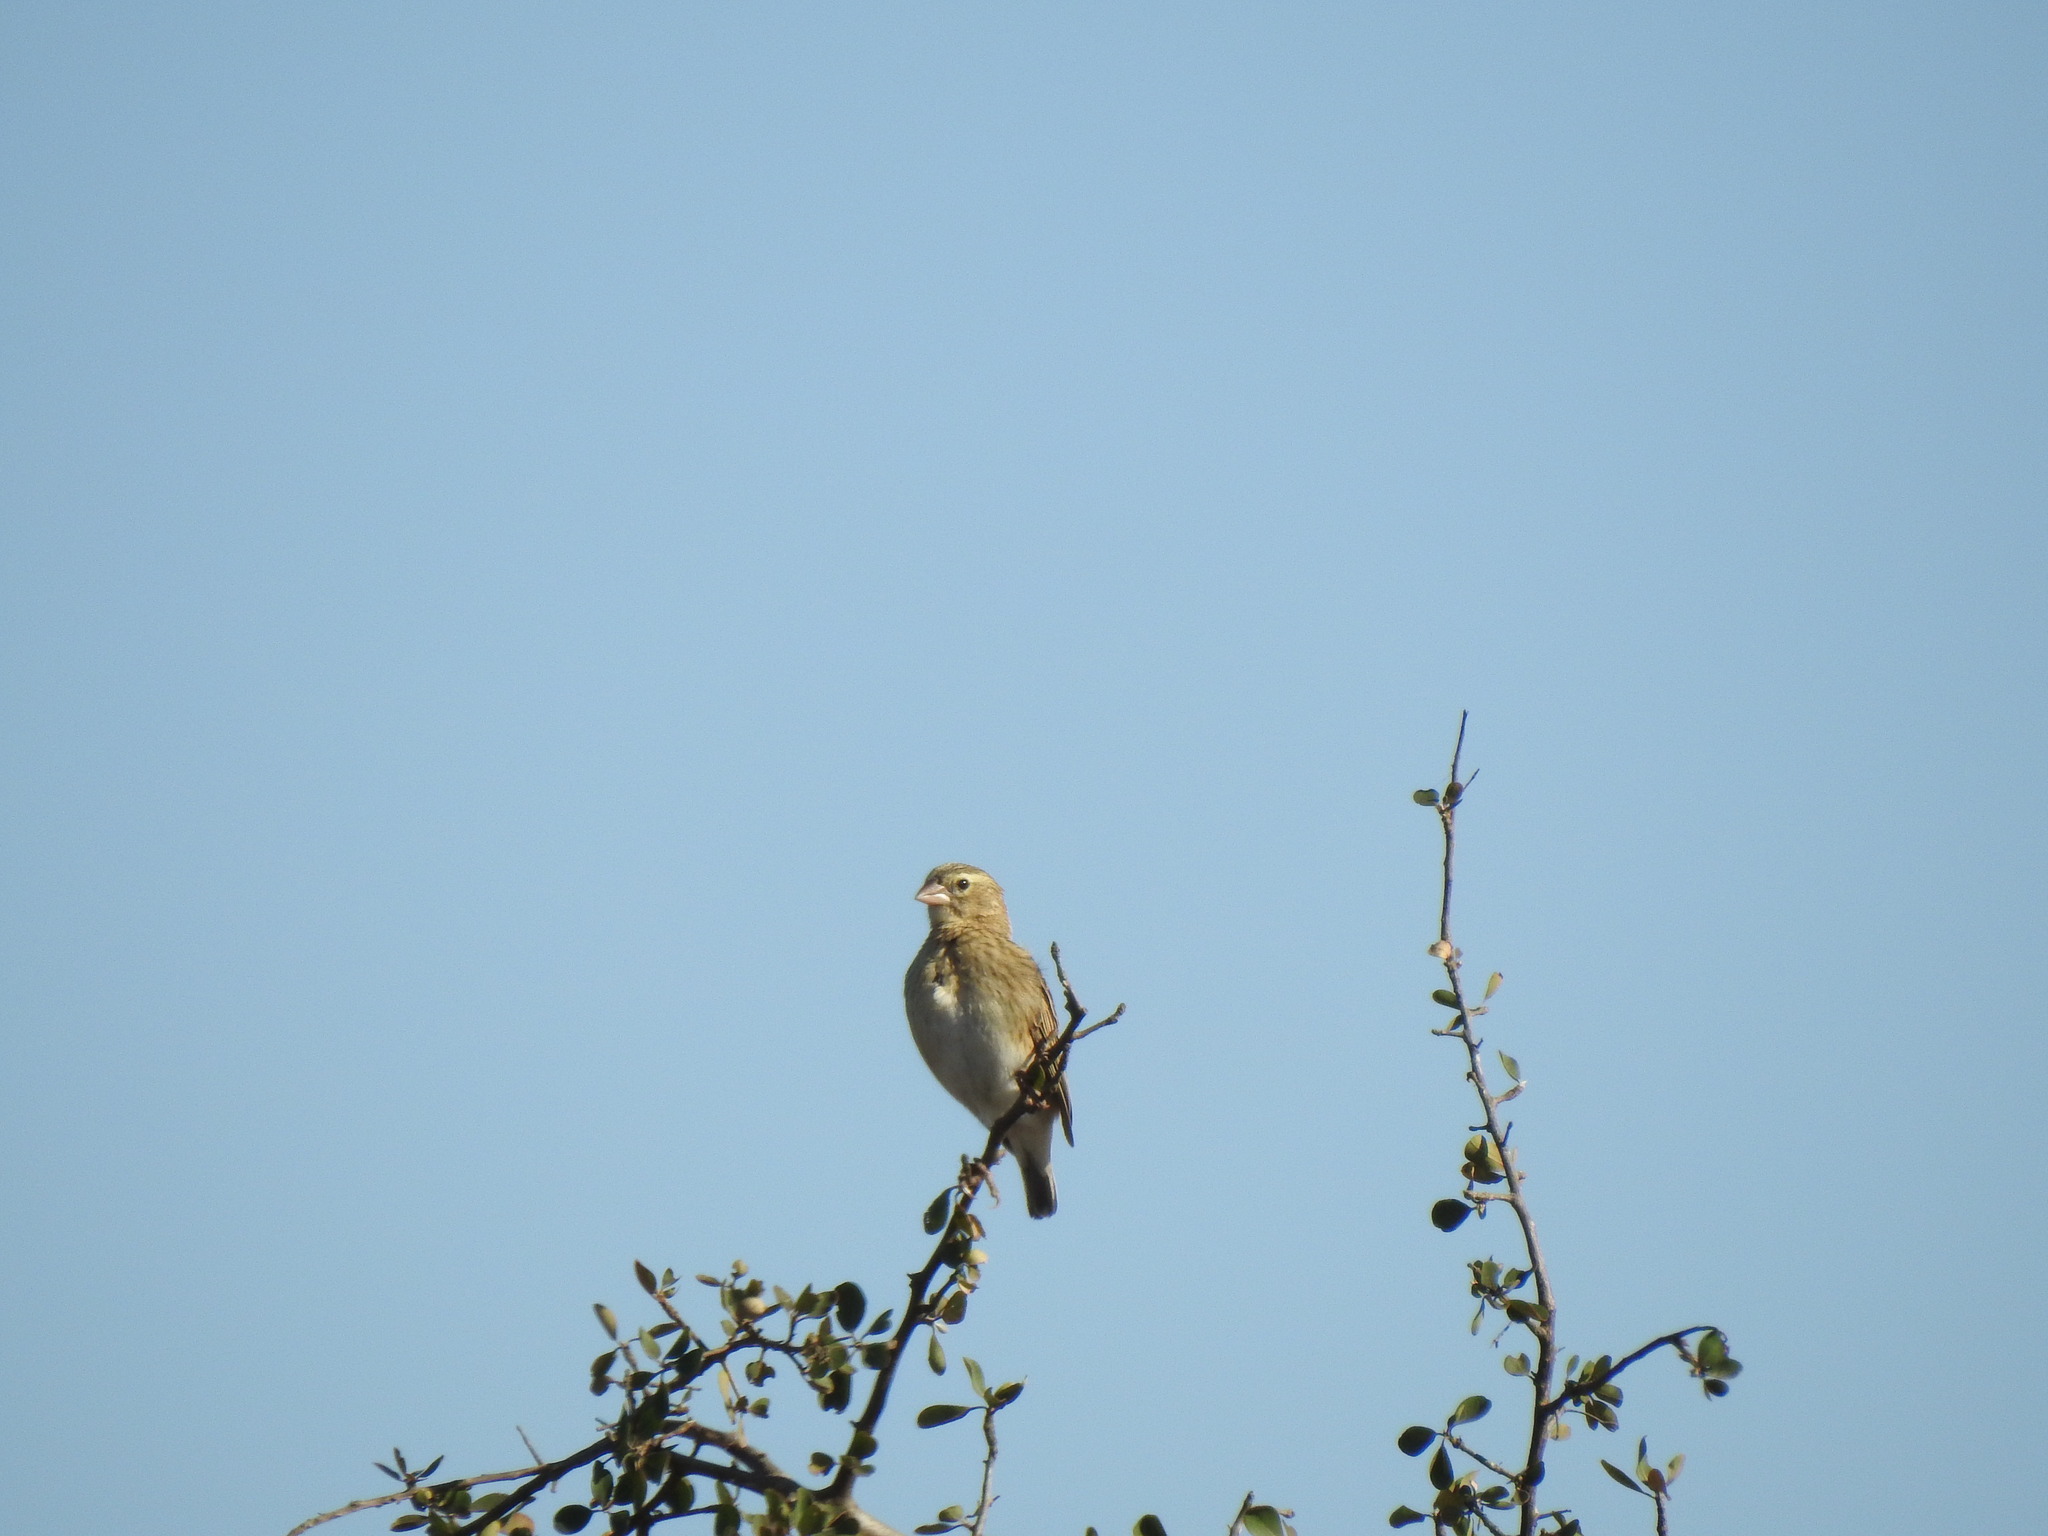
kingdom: Animalia
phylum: Chordata
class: Aves
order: Passeriformes
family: Ploceidae
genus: Euplectes
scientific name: Euplectes orix
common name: Southern red bishop
